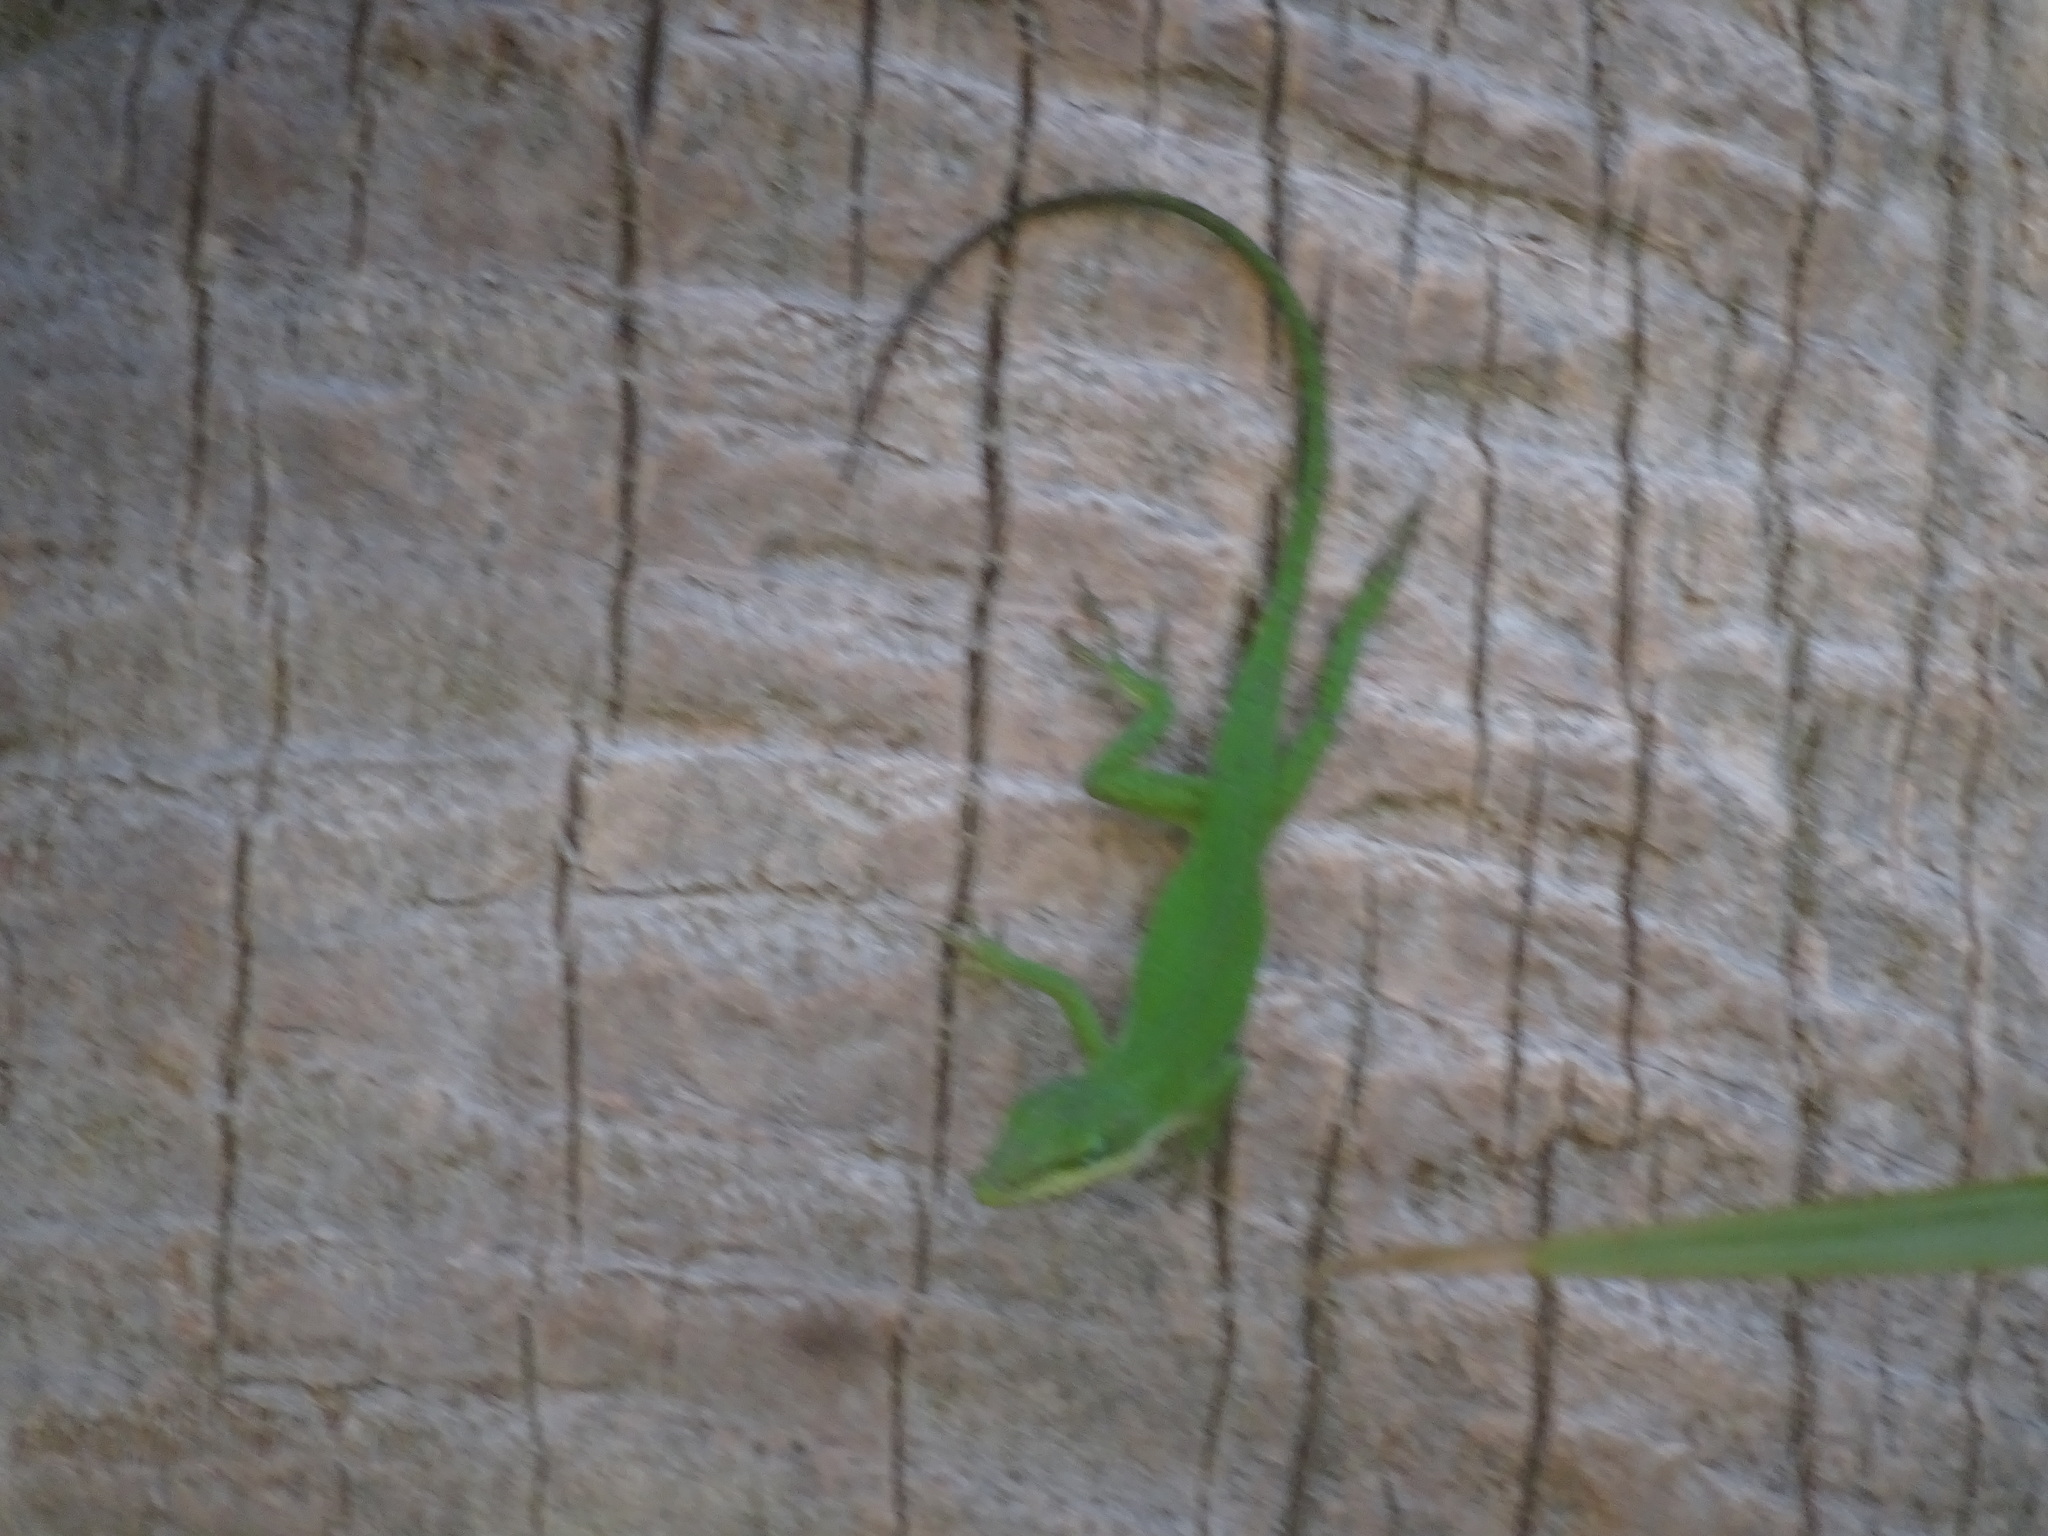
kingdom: Animalia
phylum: Chordata
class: Squamata
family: Dactyloidae
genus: Anolis
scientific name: Anolis carolinensis
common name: Green anole
